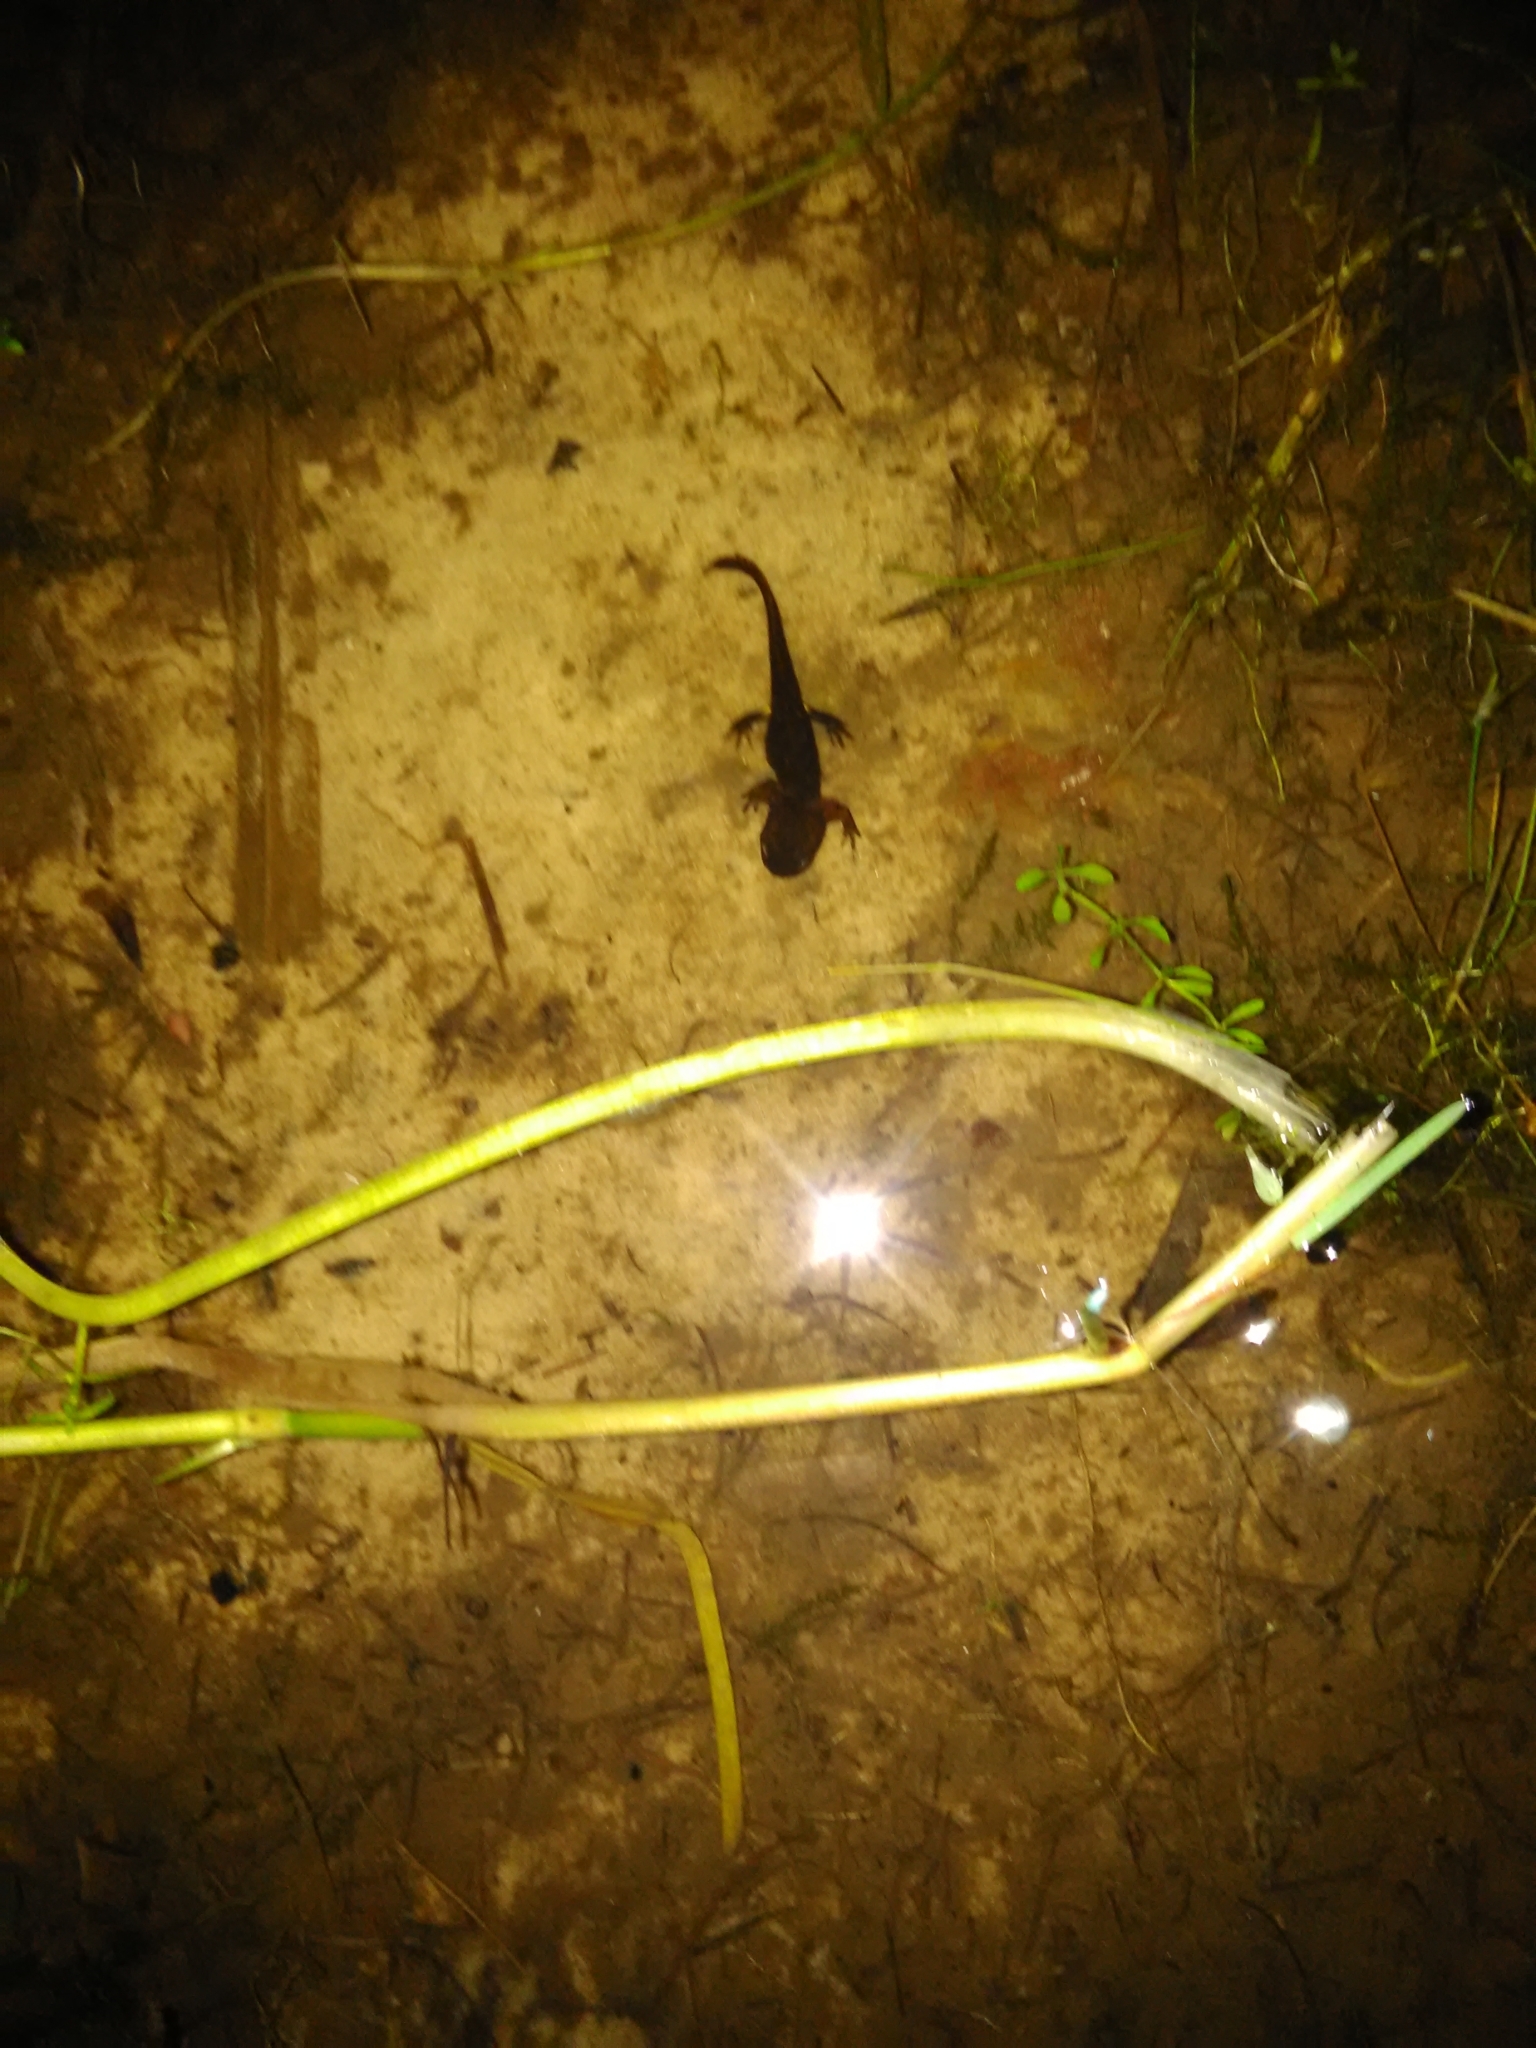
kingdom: Animalia
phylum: Chordata
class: Amphibia
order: Caudata
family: Salamandridae
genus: Salamandra
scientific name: Salamandra salamandra
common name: Fire salamander
